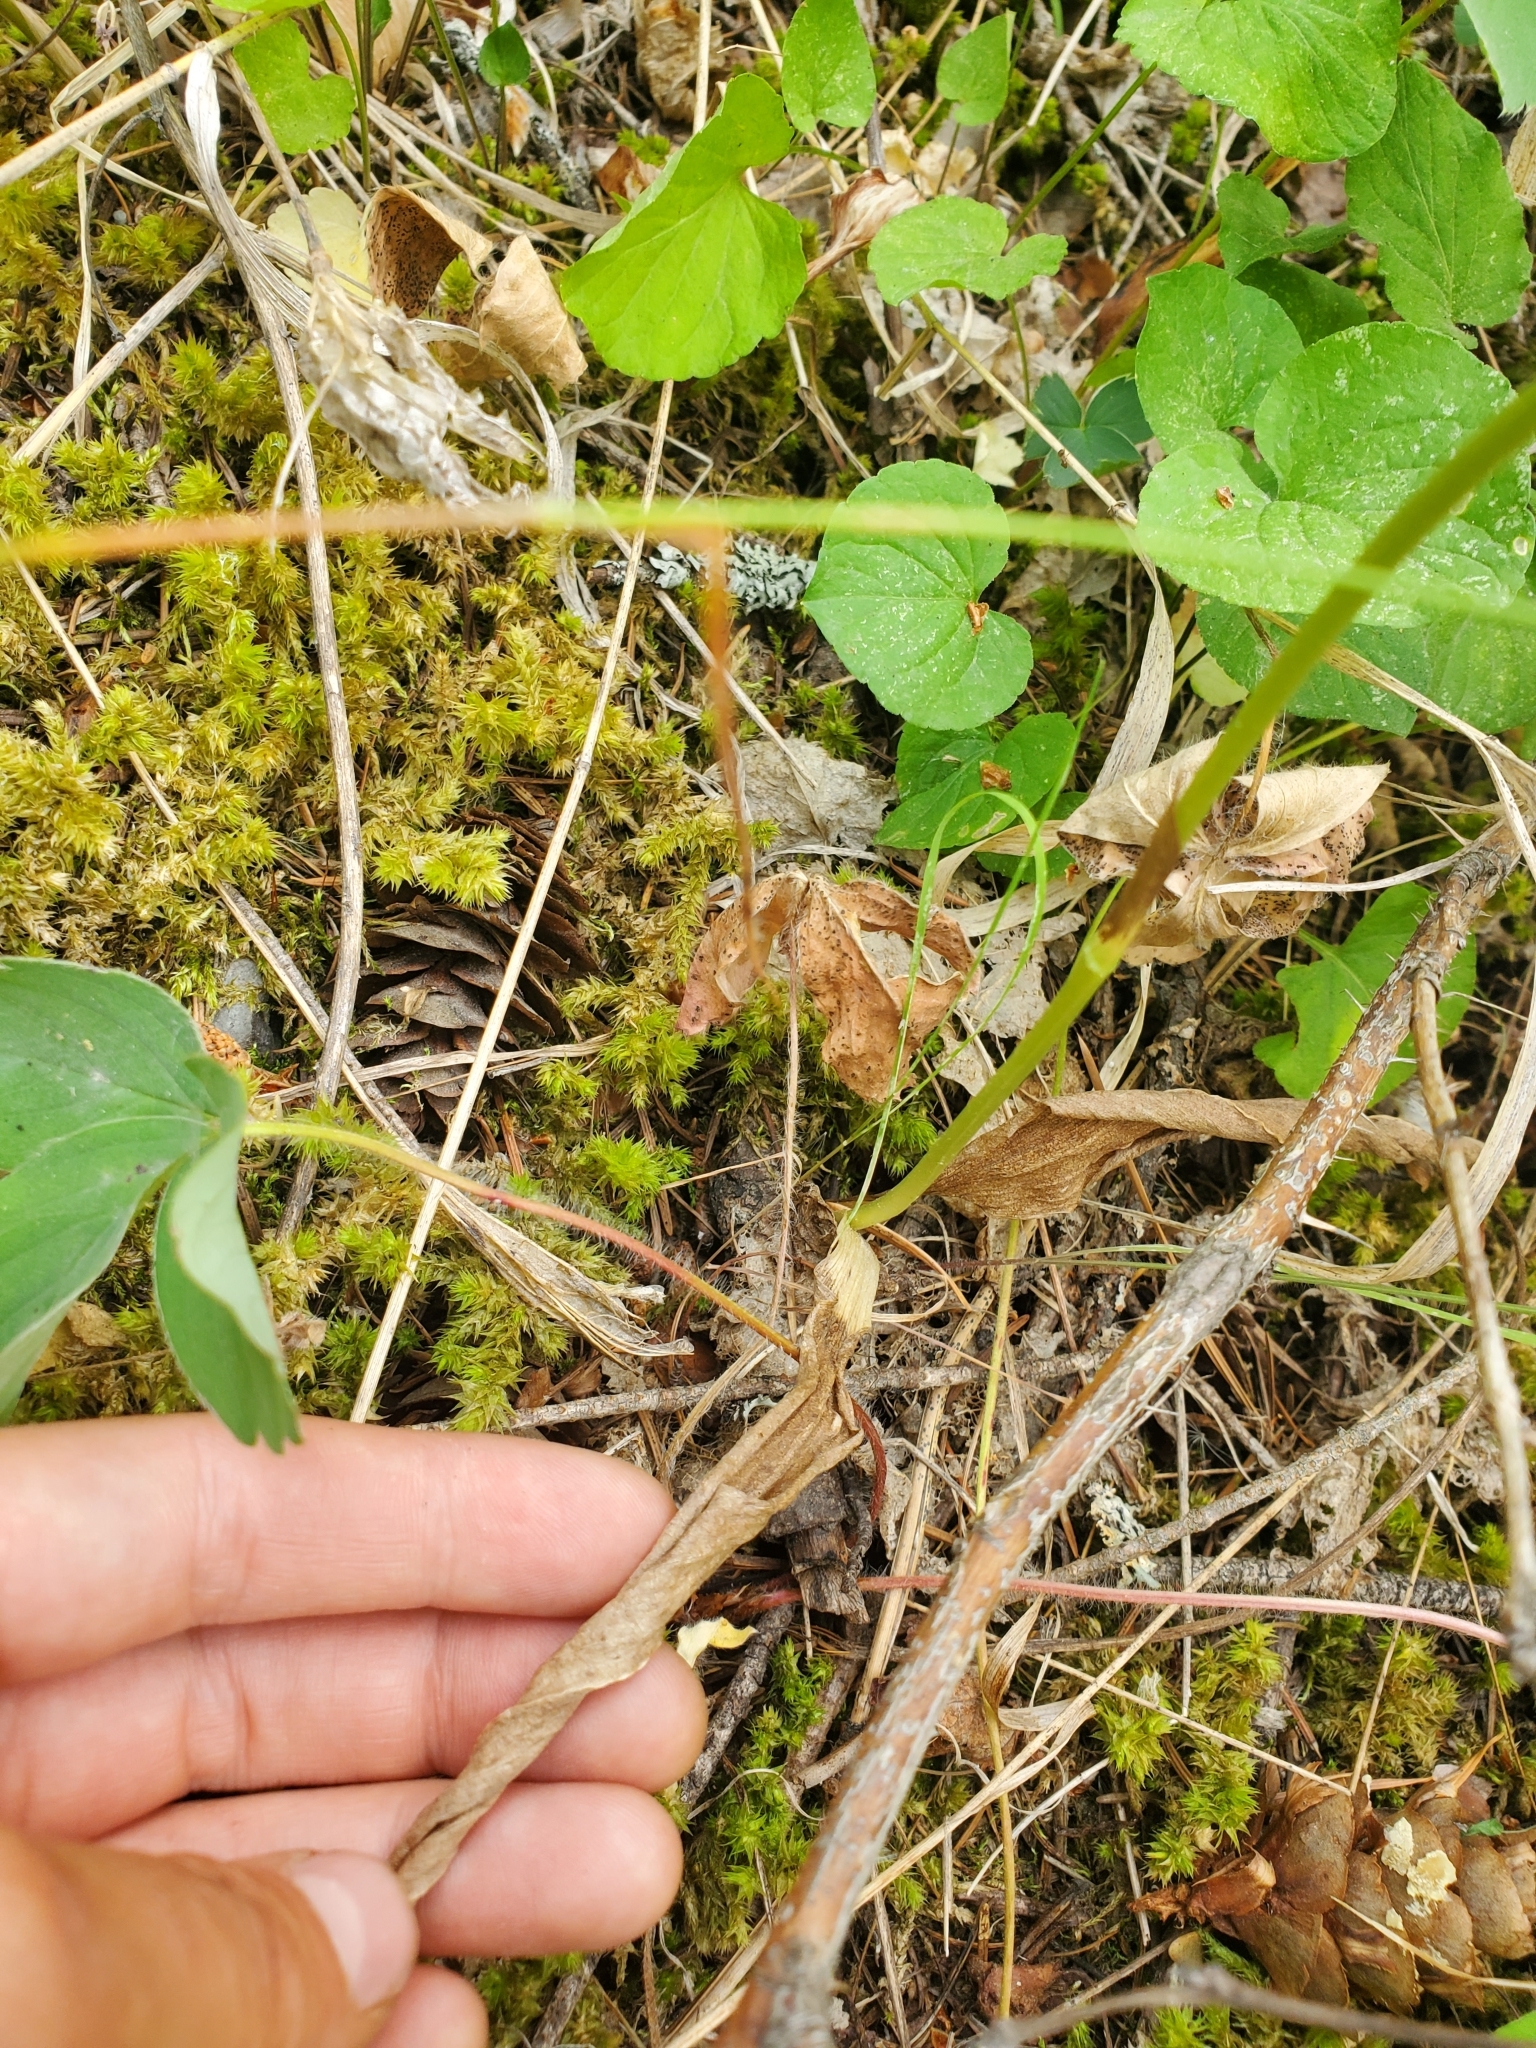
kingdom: Plantae
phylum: Tracheophyta
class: Liliopsida
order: Asparagales
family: Orchidaceae
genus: Platanthera
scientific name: Platanthera elongata
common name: Dense-flowered rein orchid
